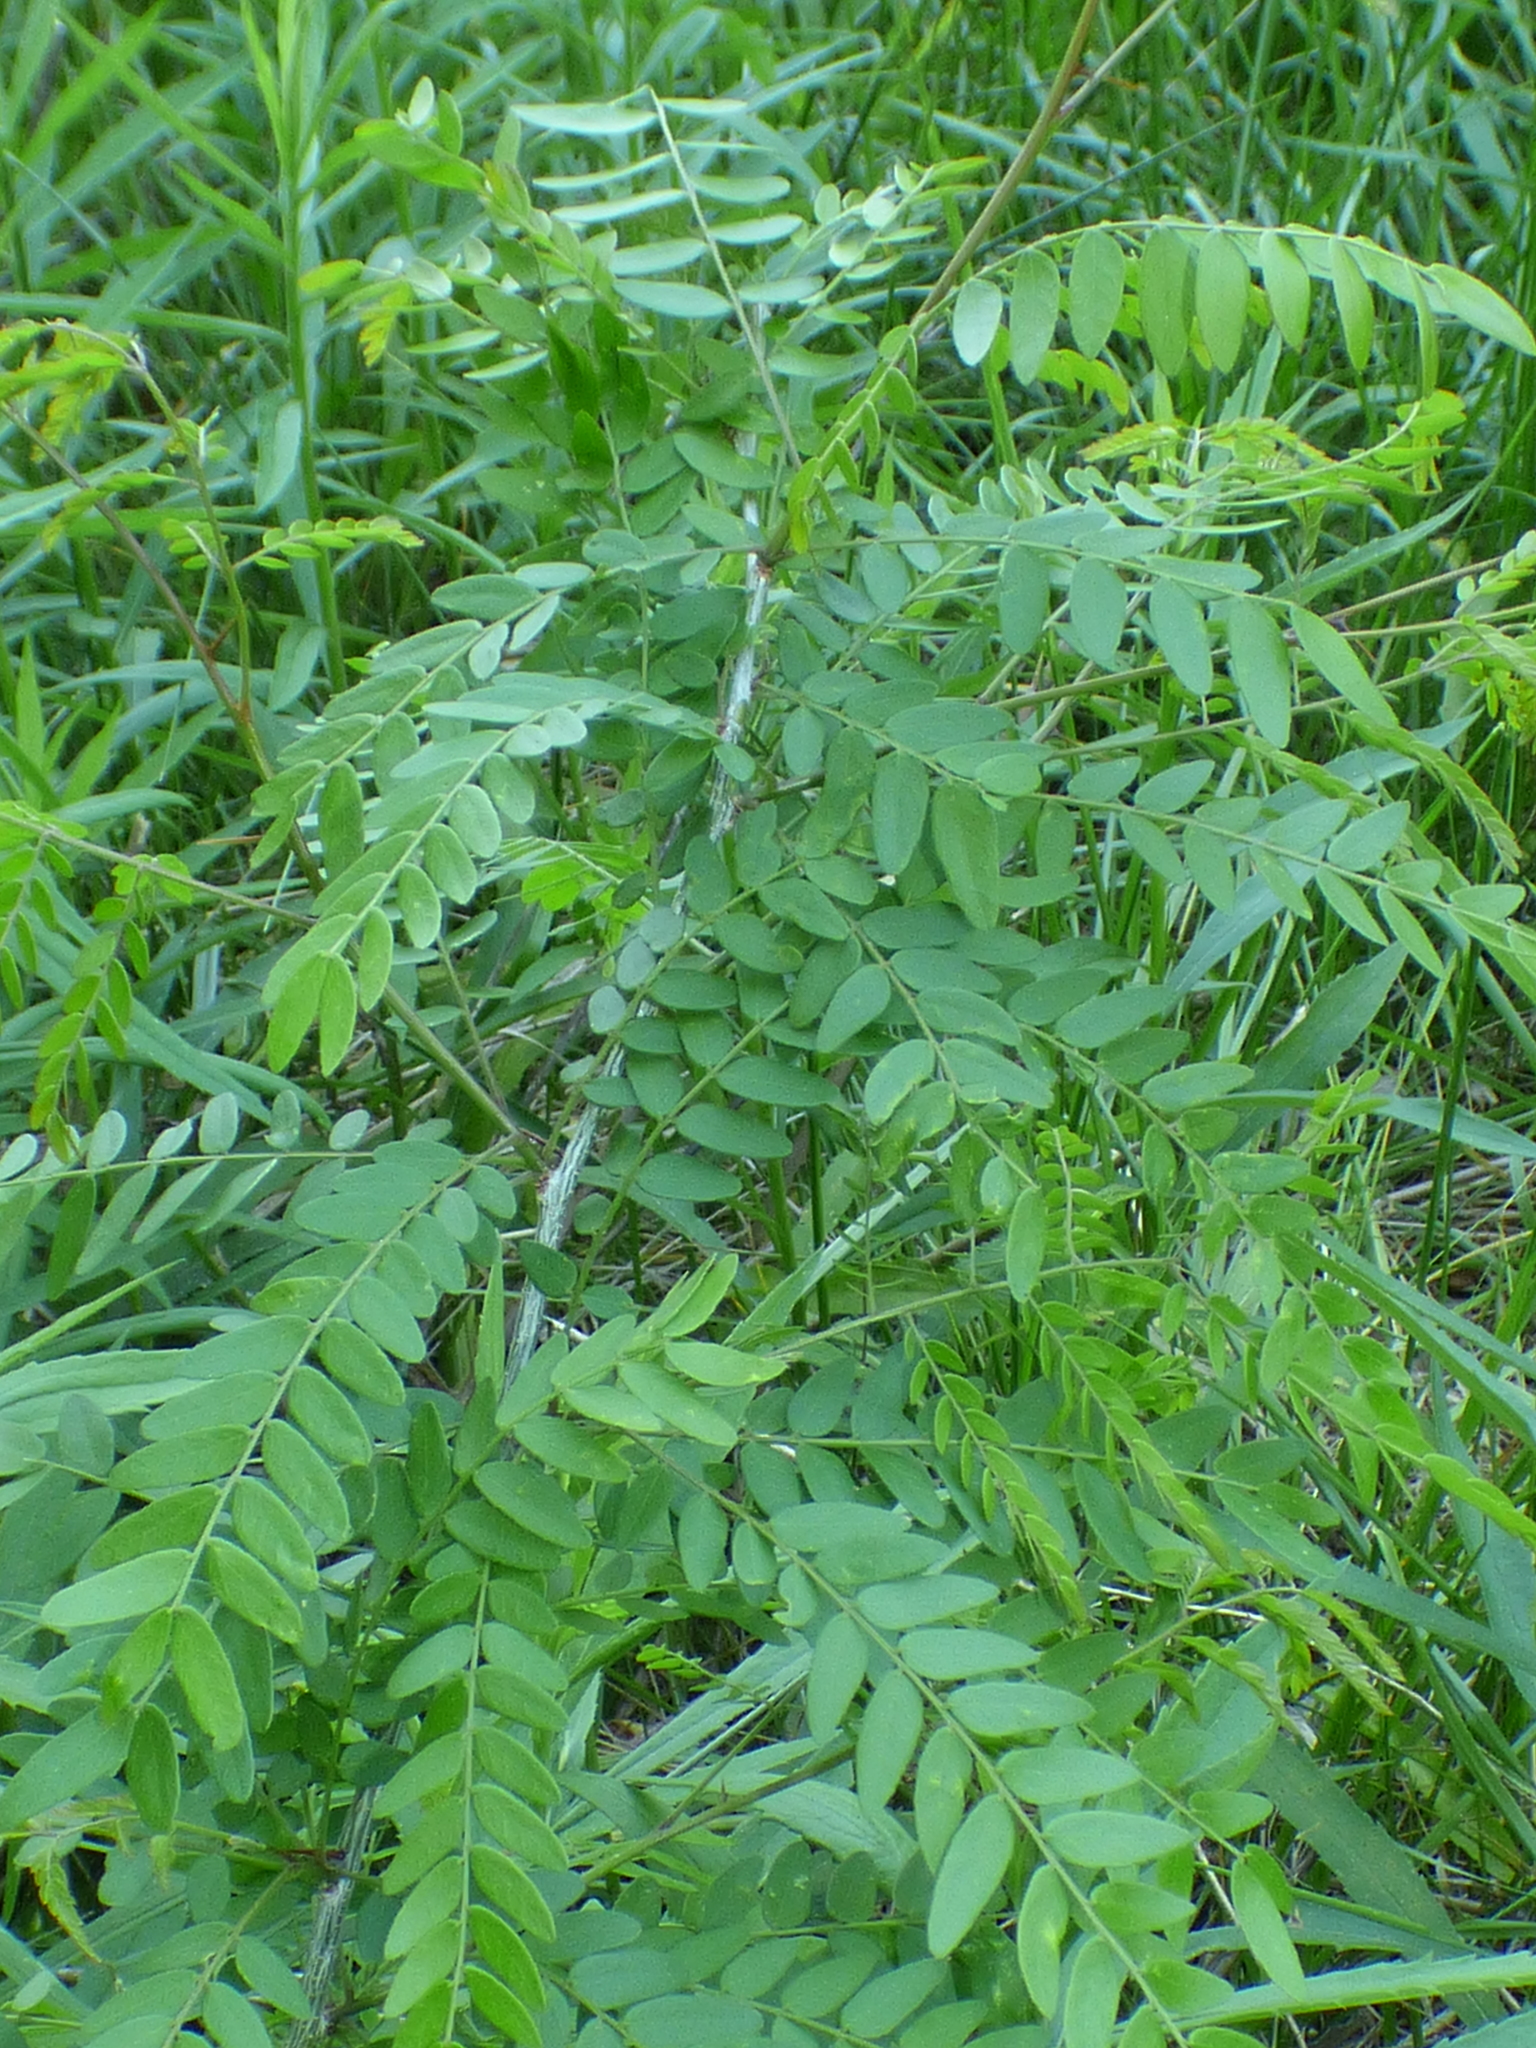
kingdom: Plantae
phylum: Tracheophyta
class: Magnoliopsida
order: Fabales
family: Fabaceae
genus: Gleditsia
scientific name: Gleditsia triacanthos
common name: Common honeylocust
